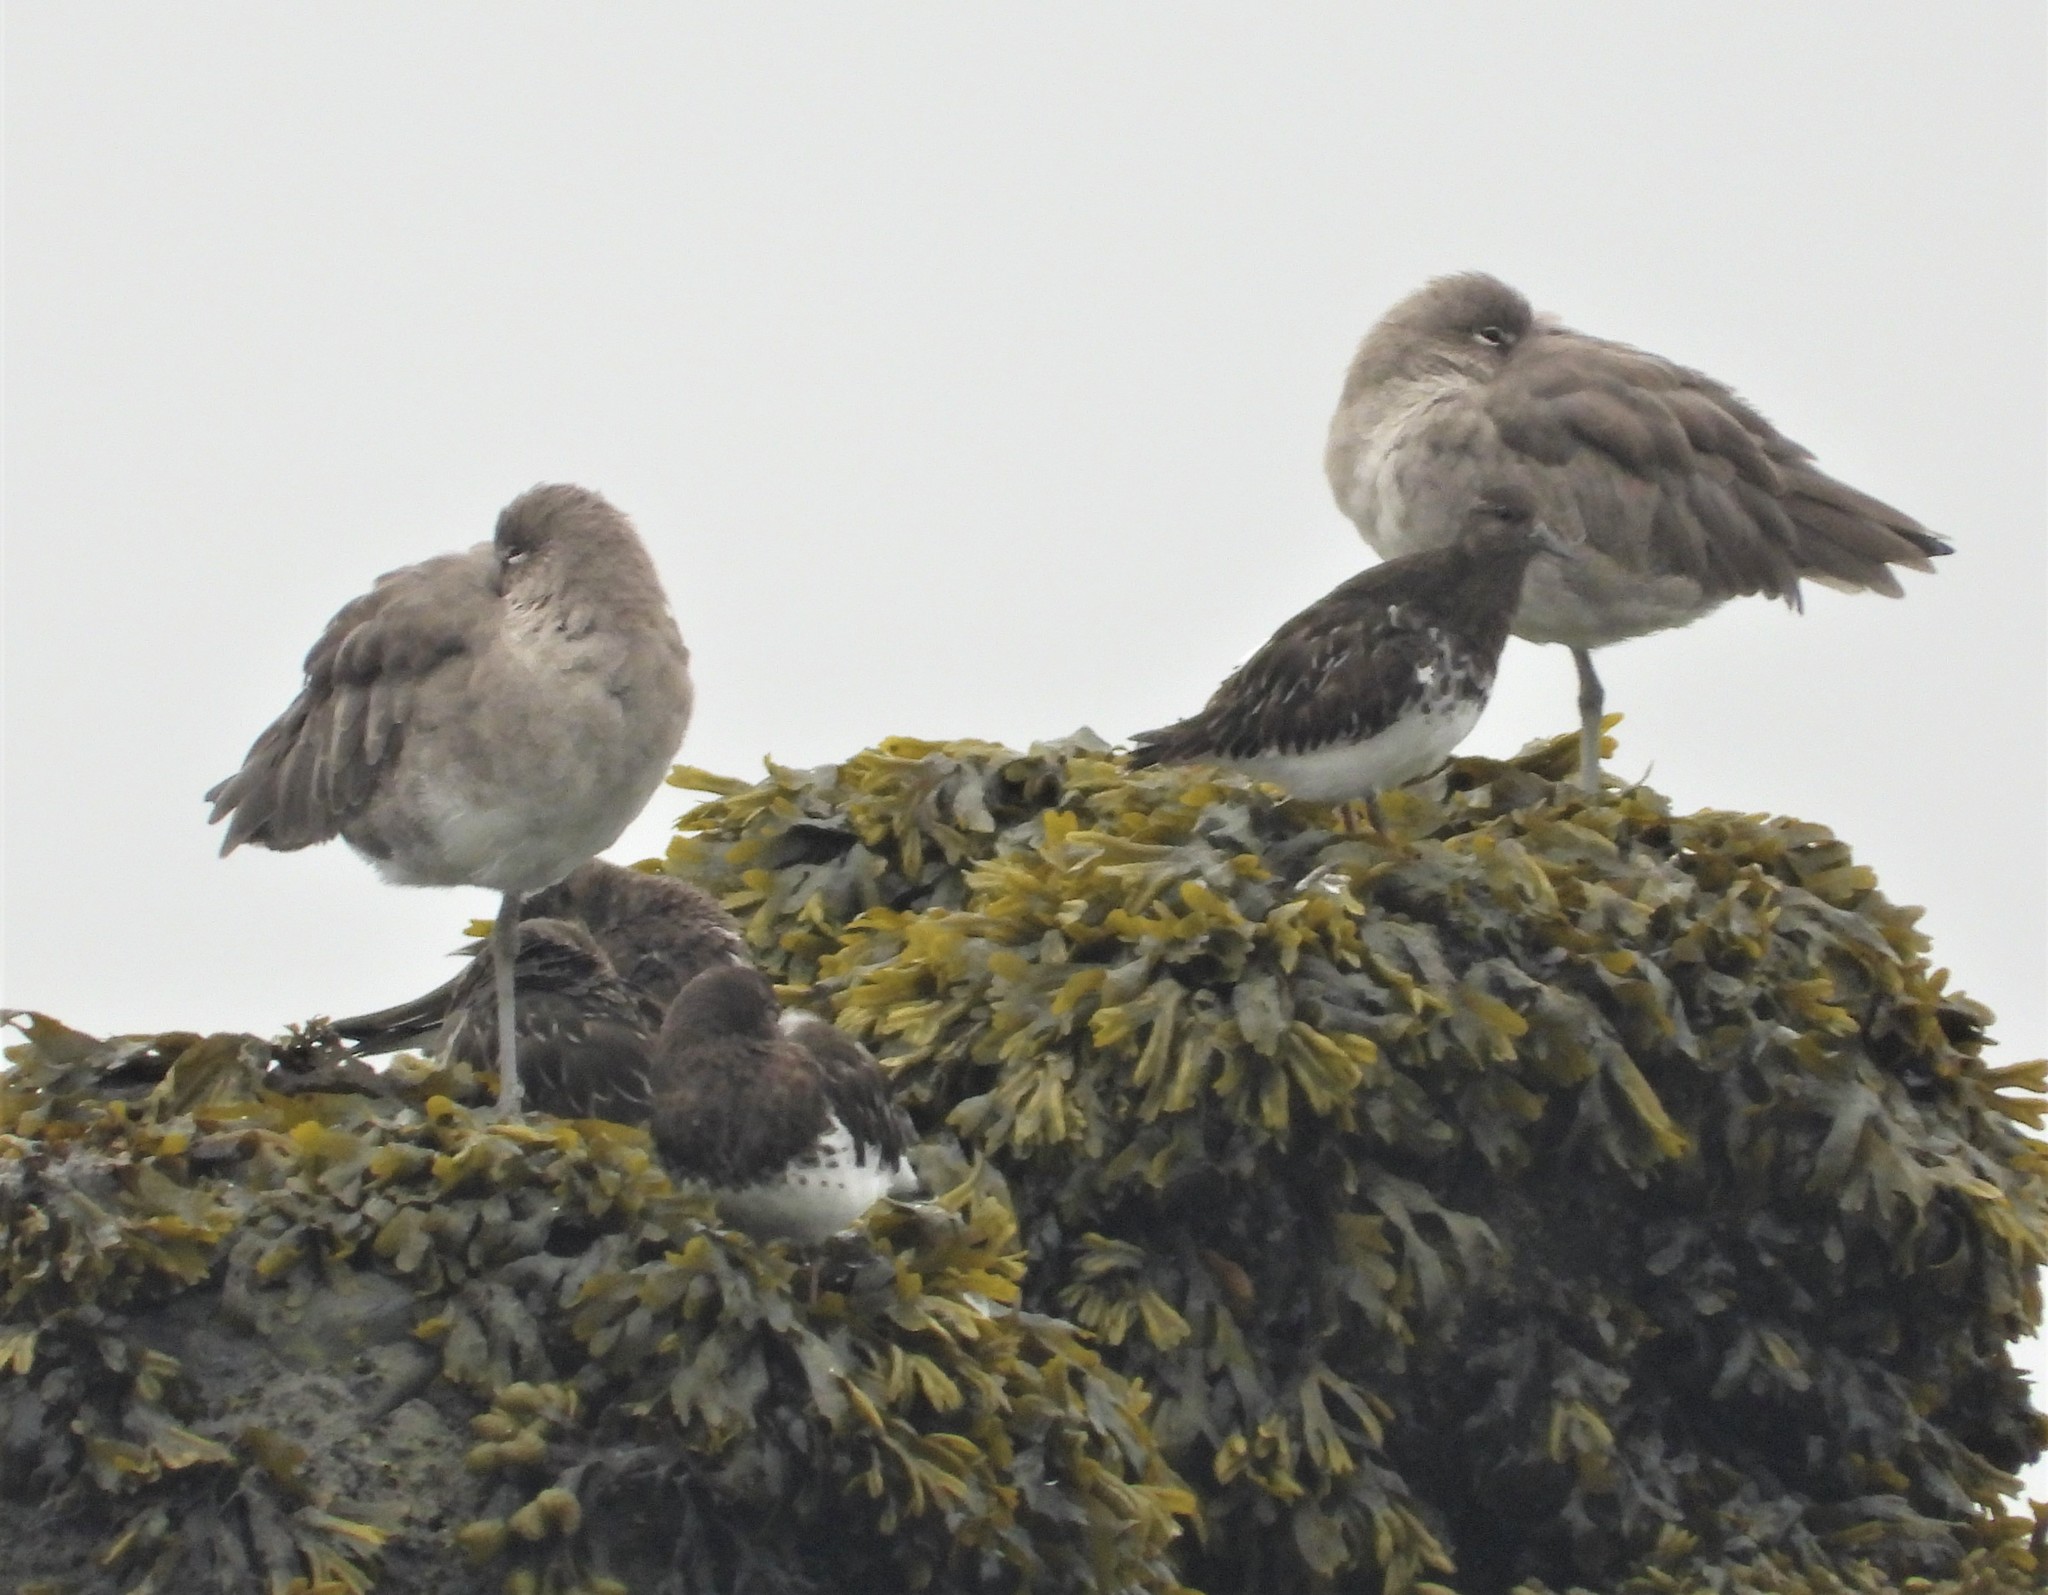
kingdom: Animalia
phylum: Chordata
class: Aves
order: Charadriiformes
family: Scolopacidae
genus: Arenaria
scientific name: Arenaria melanocephala
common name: Black turnstone
